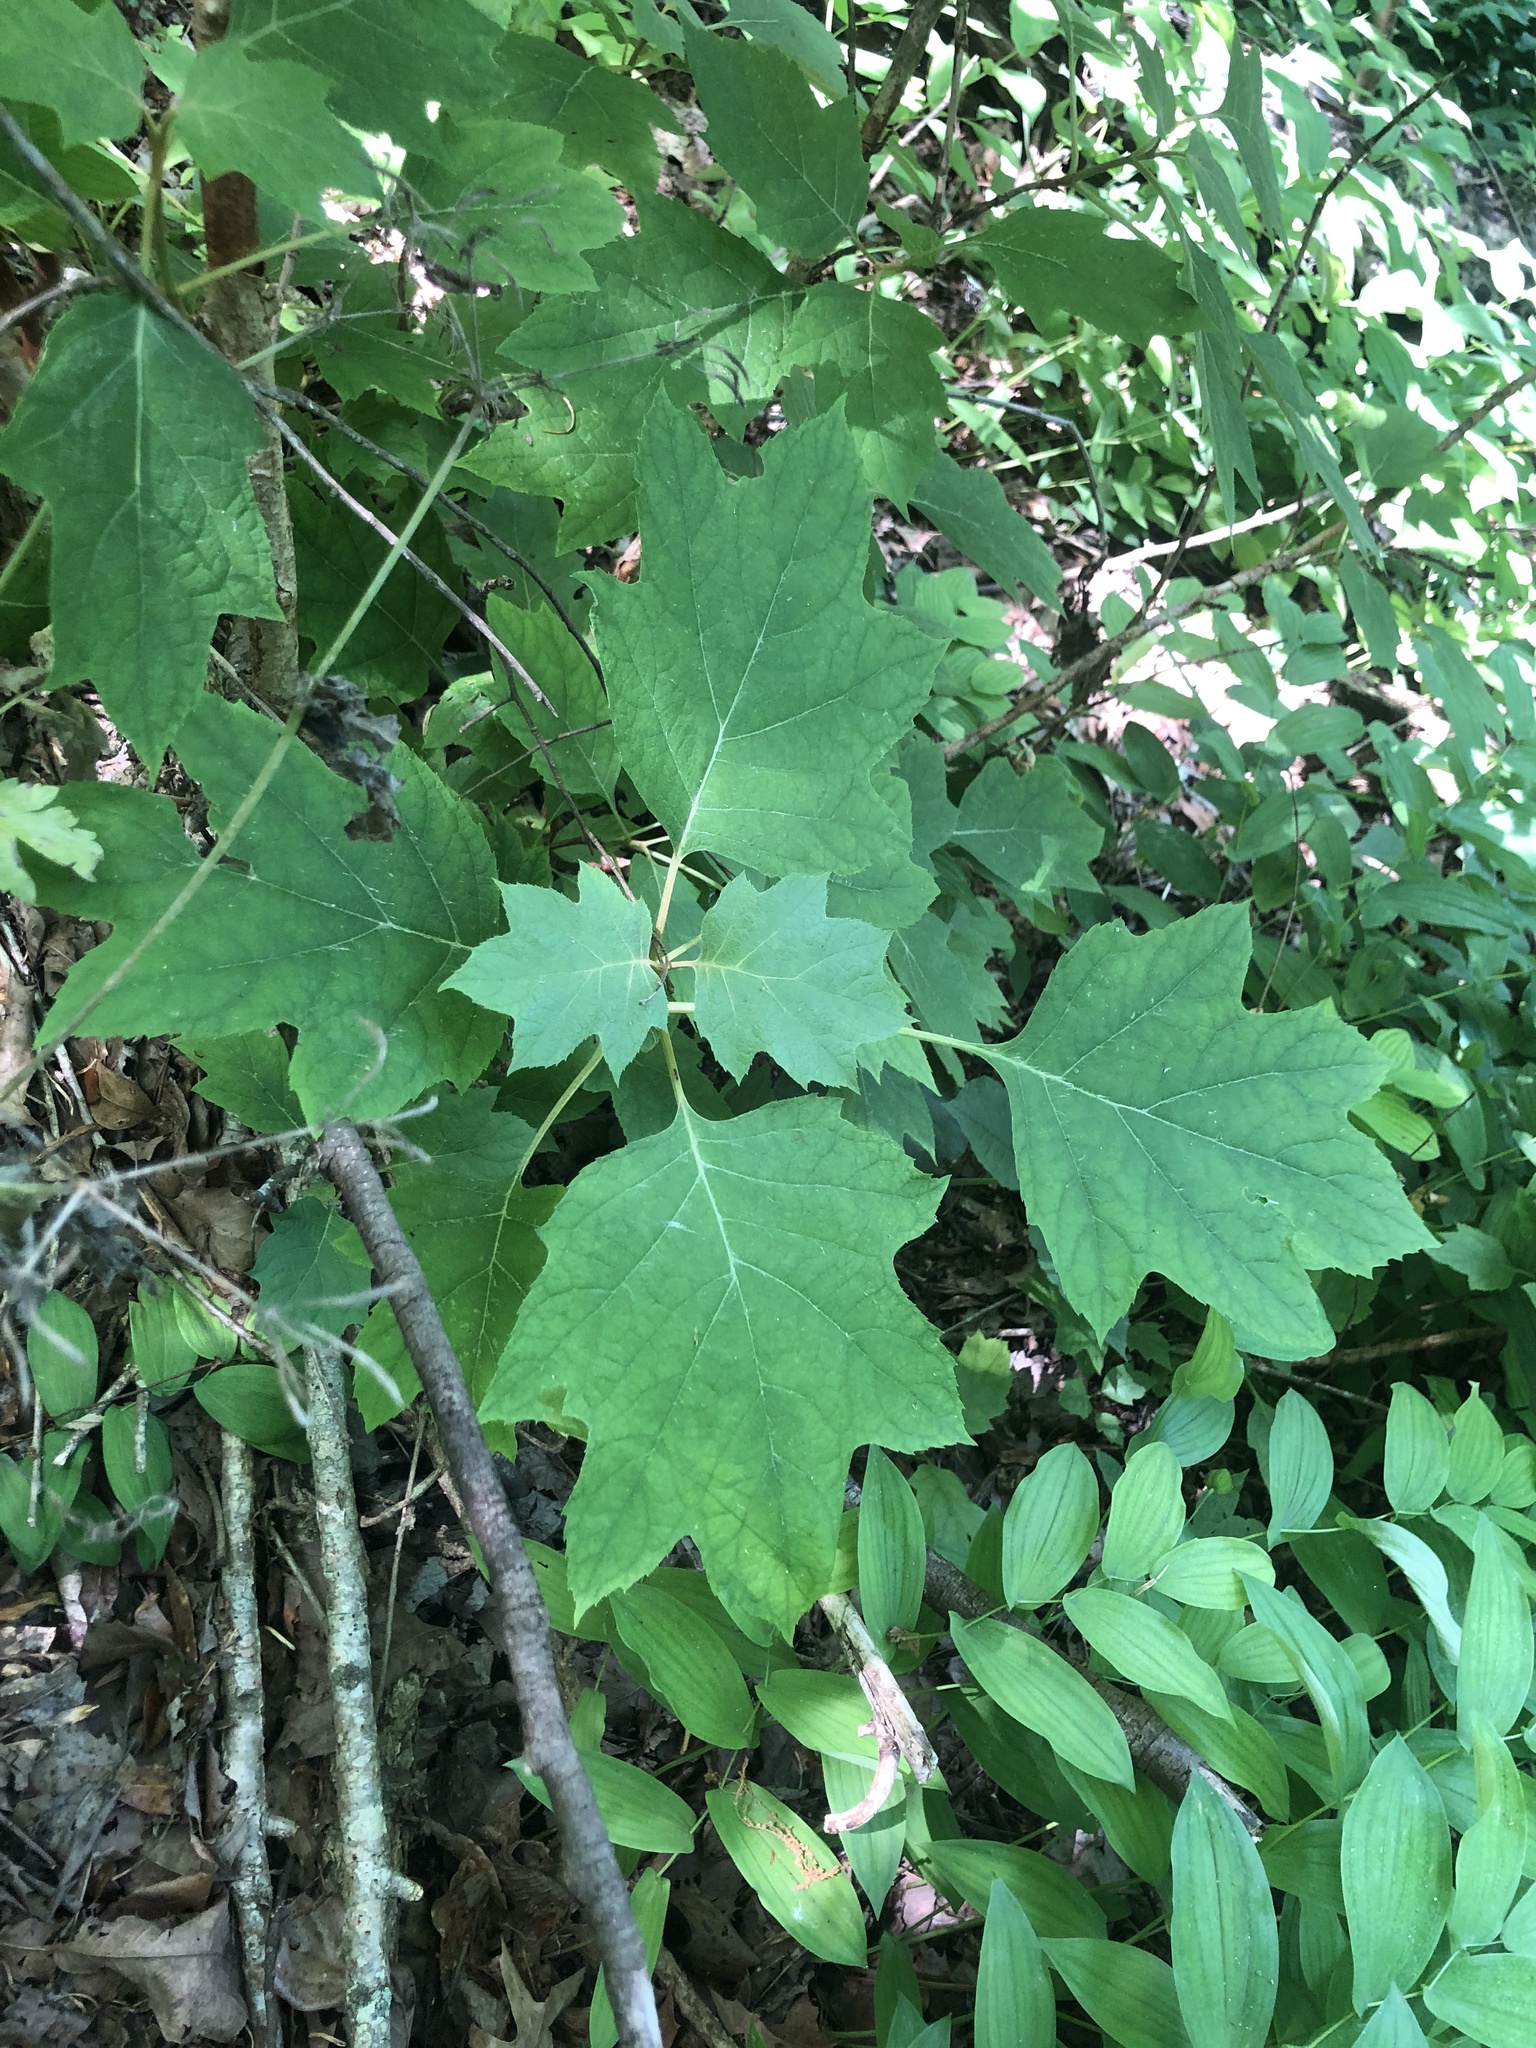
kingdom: Plantae
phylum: Tracheophyta
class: Magnoliopsida
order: Cornales
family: Hydrangeaceae
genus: Hydrangea
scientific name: Hydrangea quercifolia
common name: Oak-leaf hydrangea
